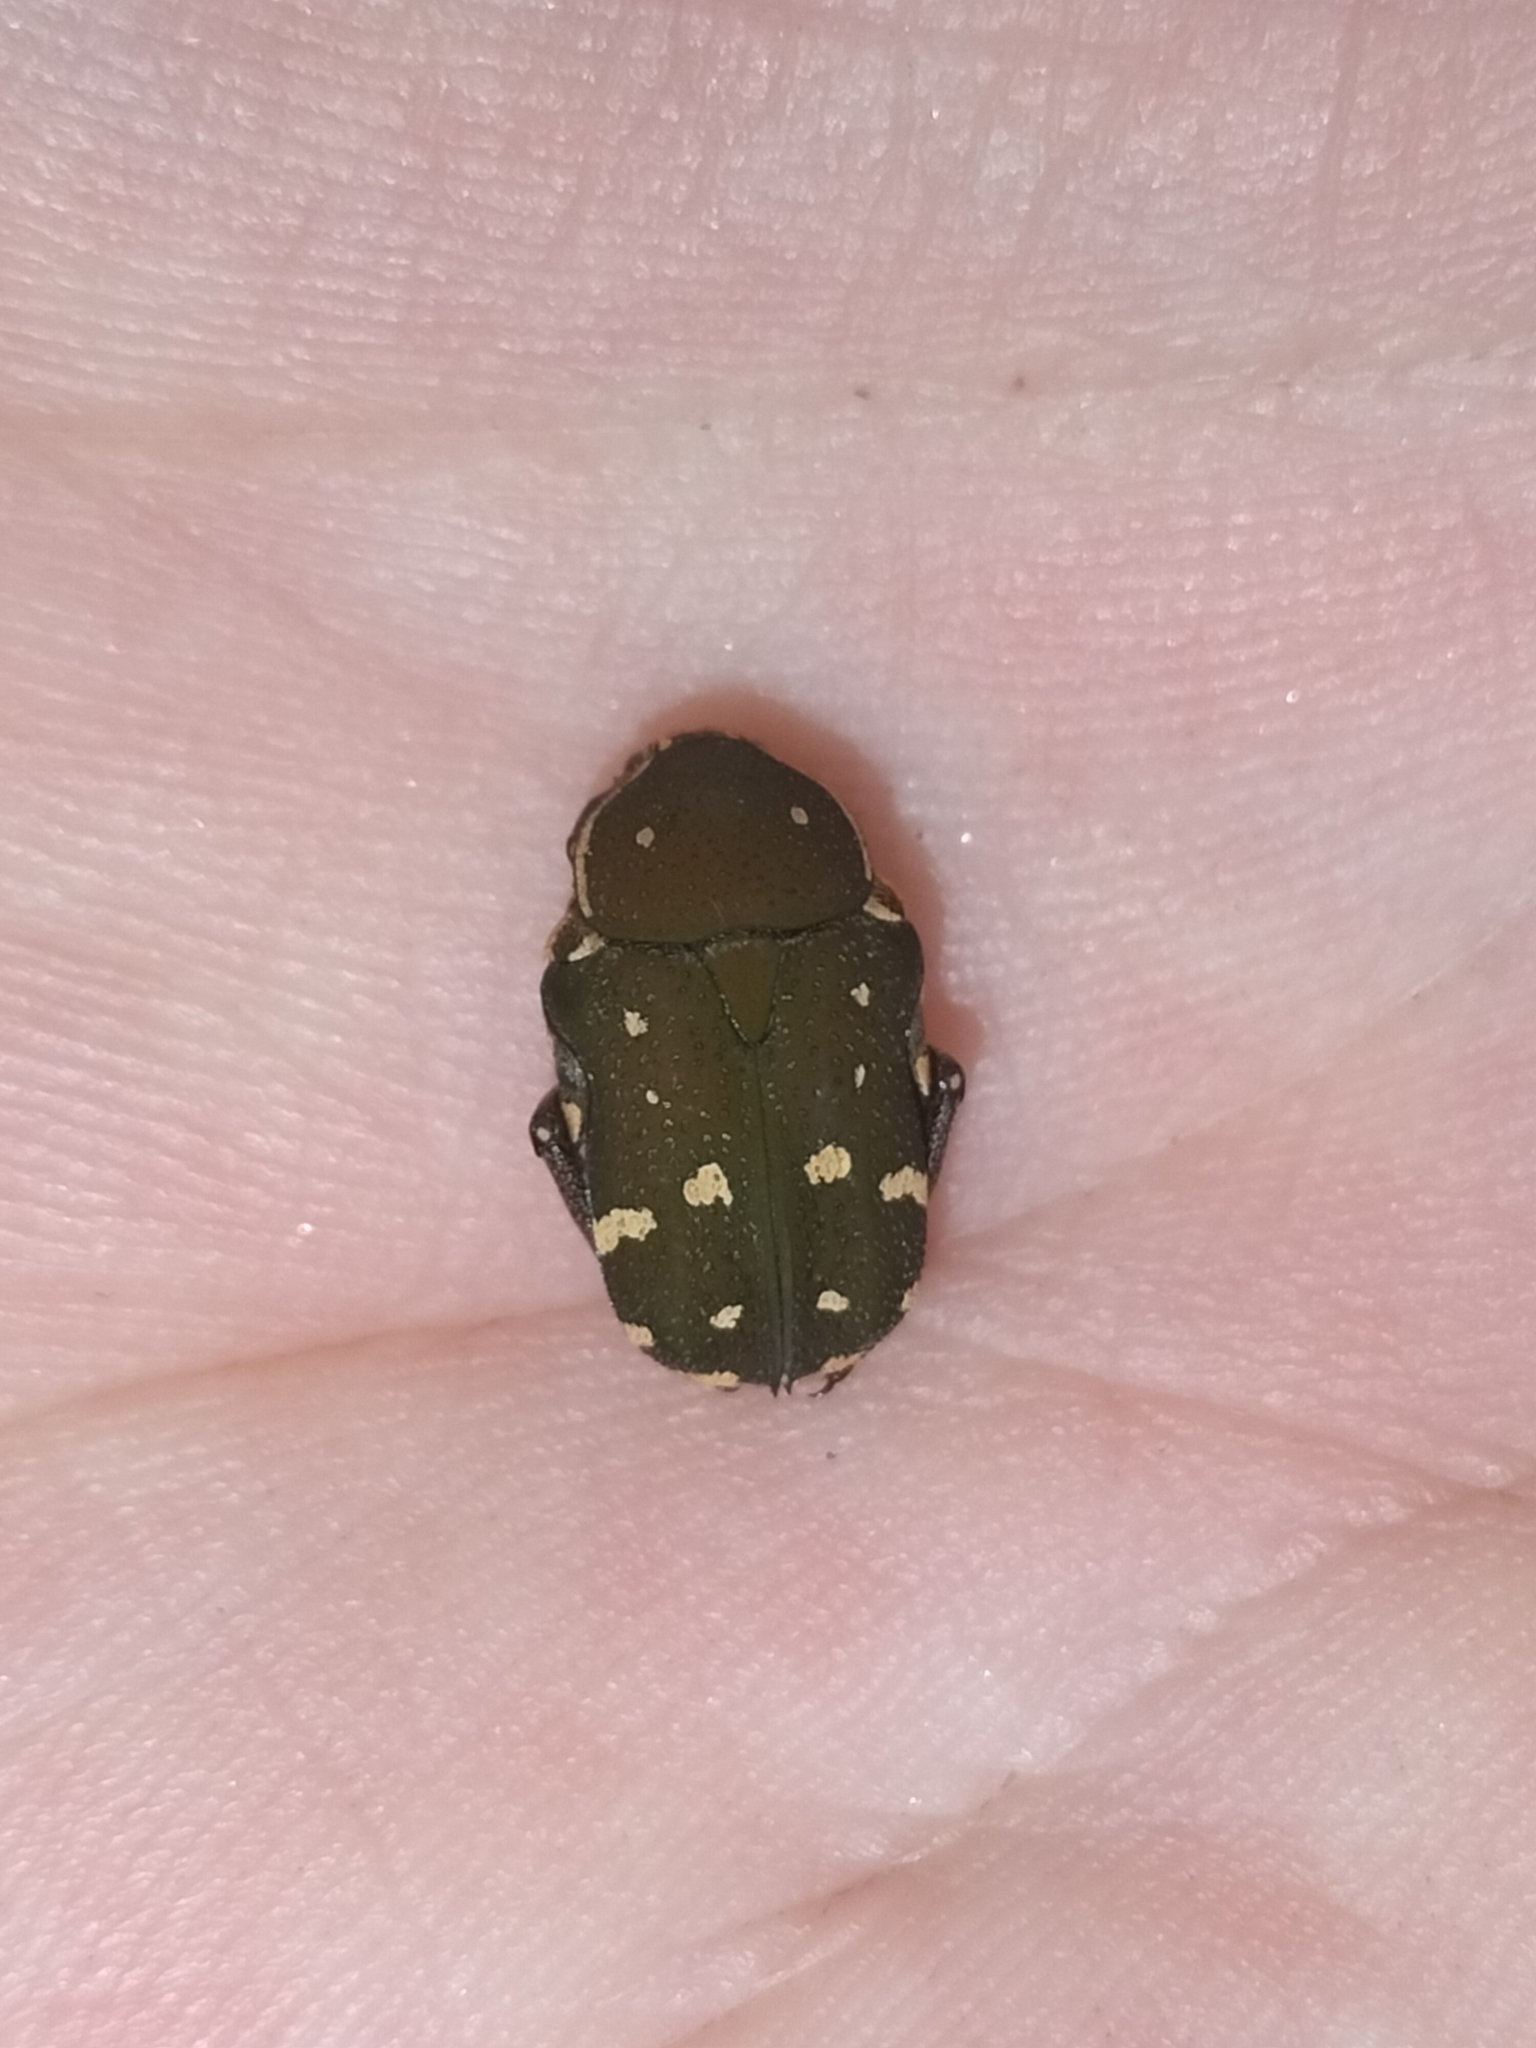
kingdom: Animalia
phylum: Arthropoda
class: Insecta
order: Coleoptera
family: Scarabaeidae
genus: Glycyphana
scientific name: Glycyphana stolata
